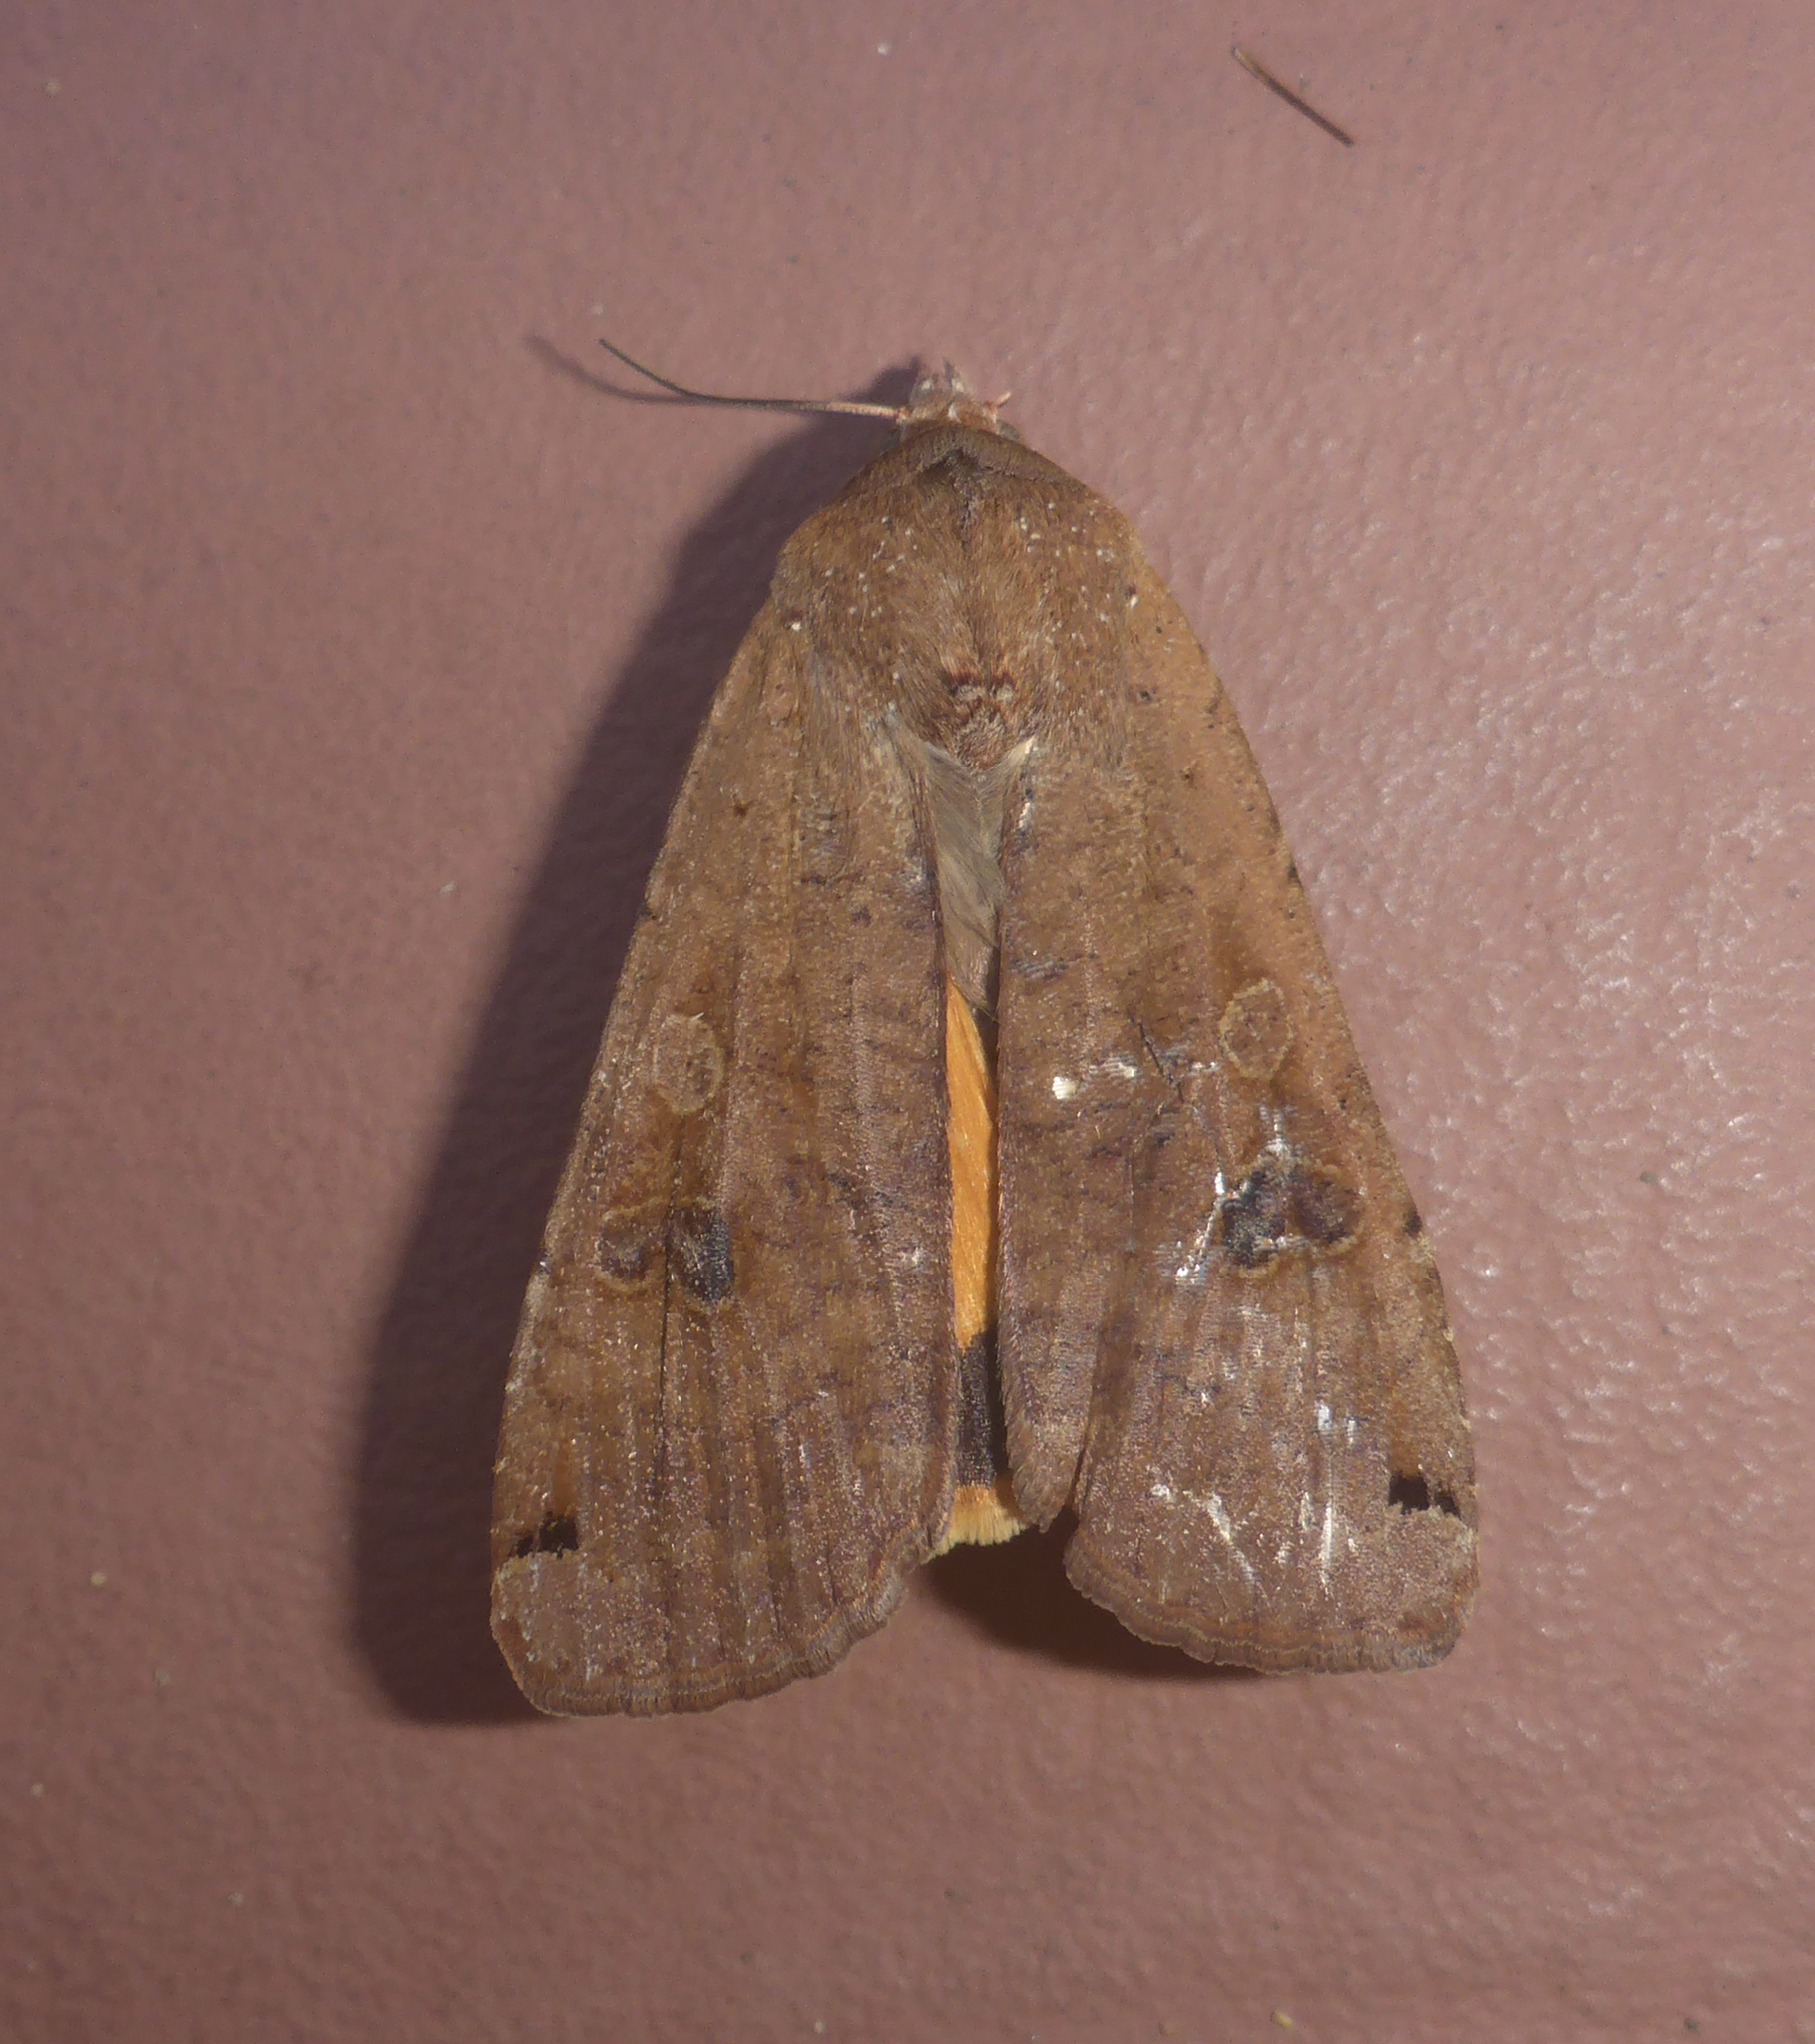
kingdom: Animalia
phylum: Arthropoda
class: Insecta
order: Lepidoptera
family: Noctuidae
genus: Noctua
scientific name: Noctua pronuba
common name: Large yellow underwing
